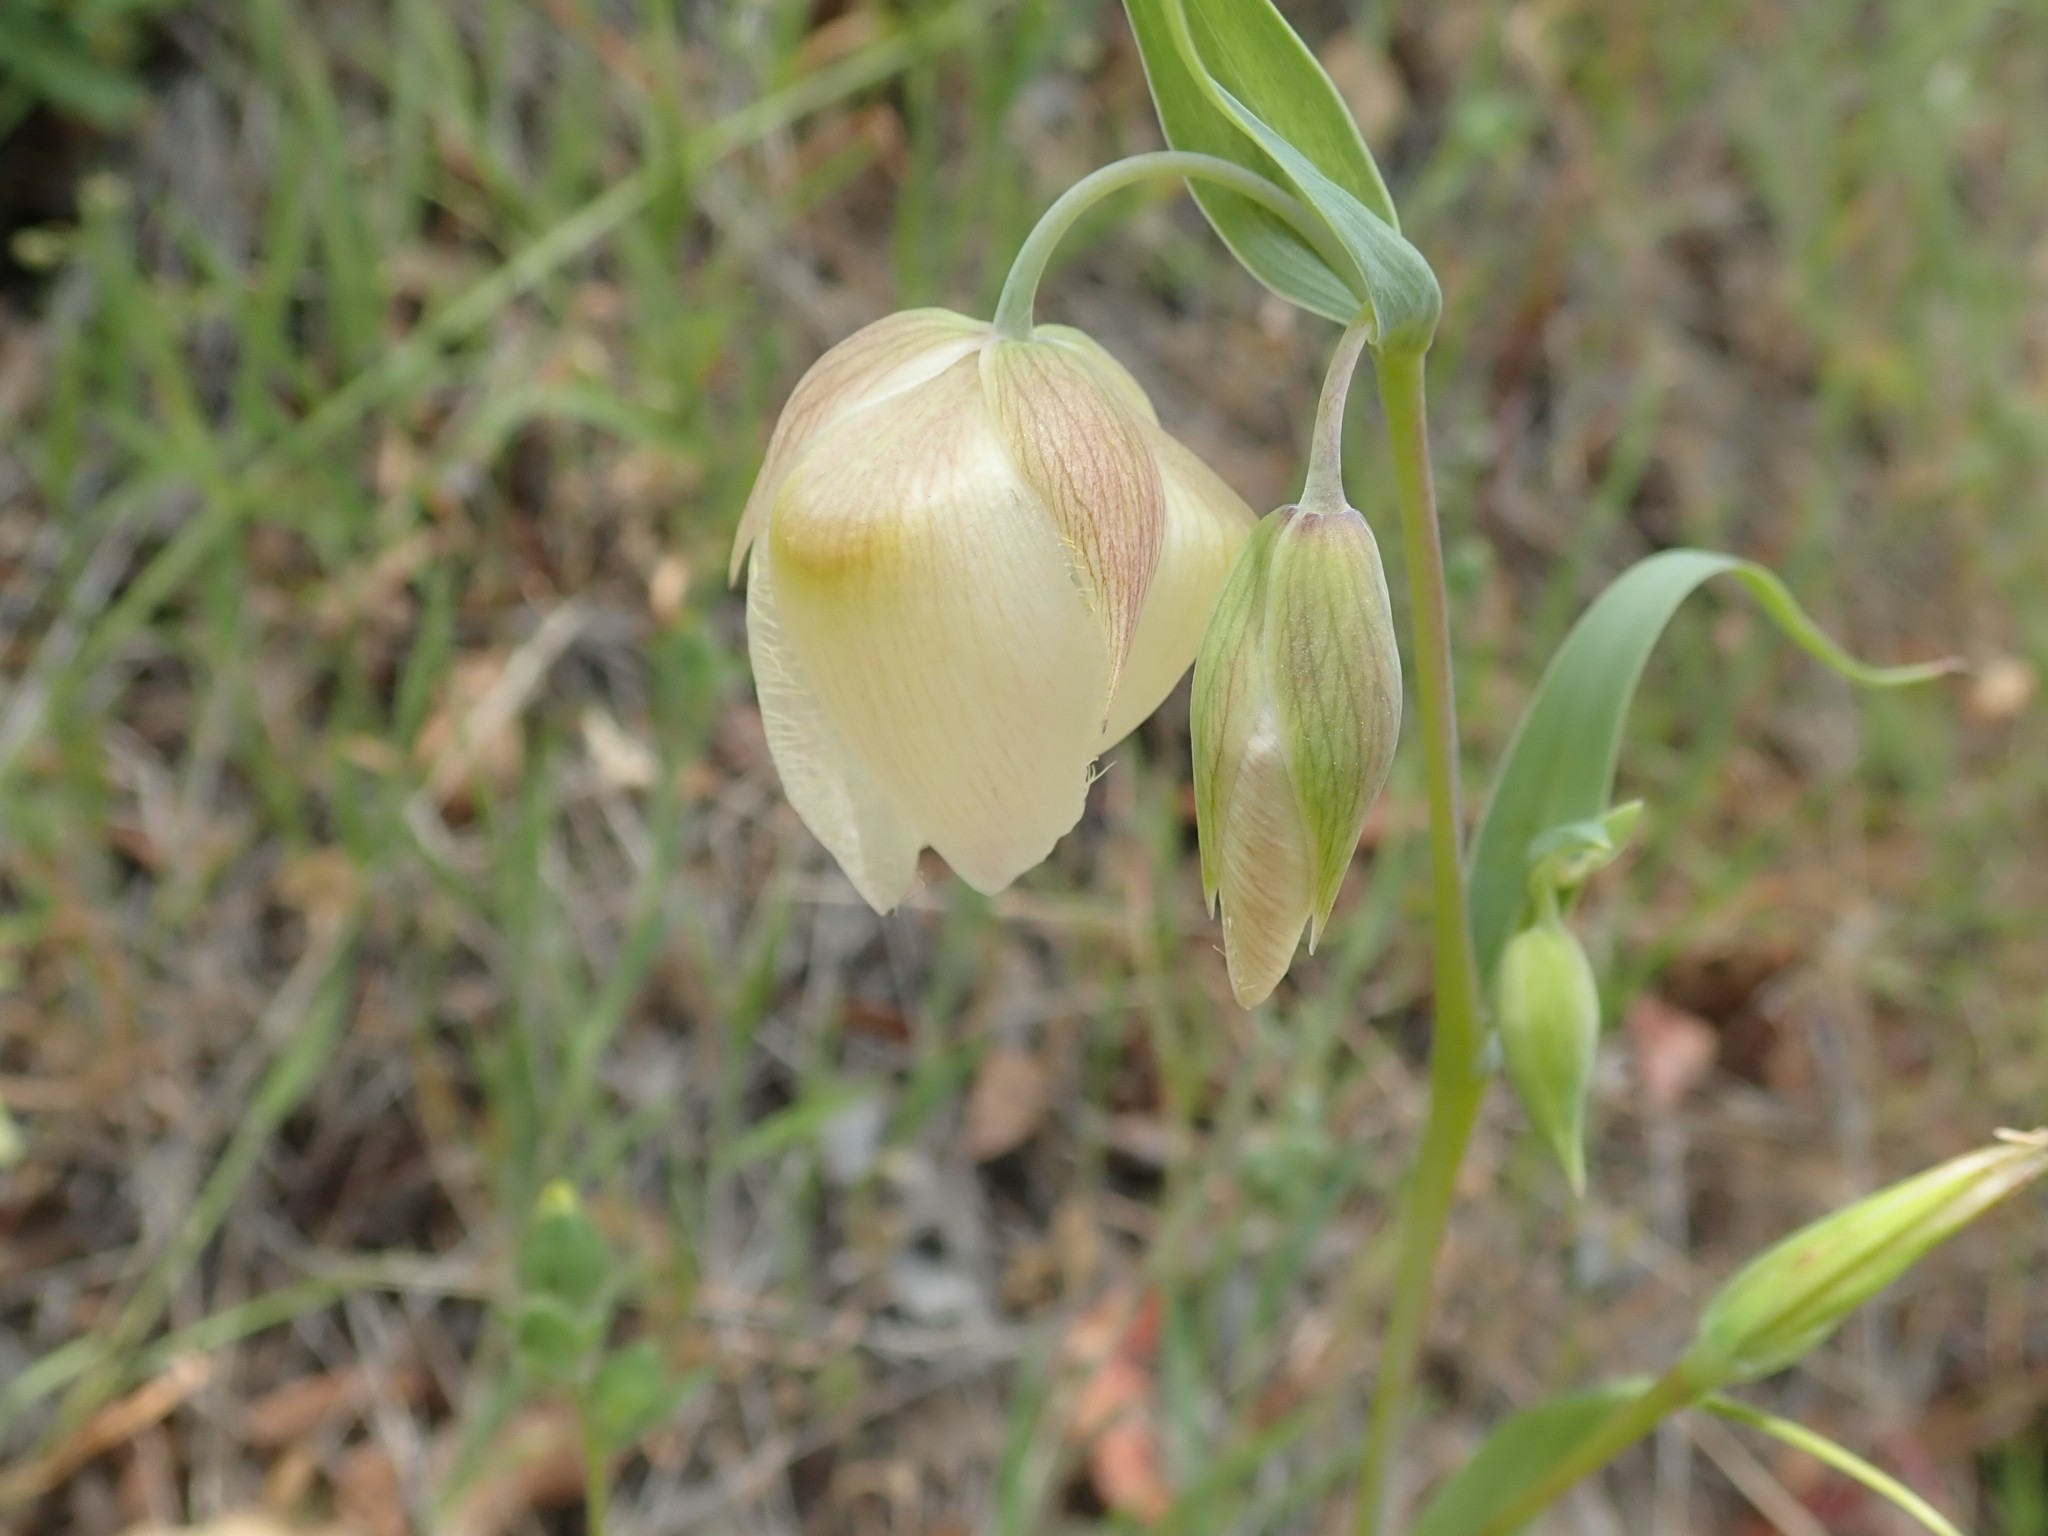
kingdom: Plantae
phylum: Tracheophyta
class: Liliopsida
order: Liliales
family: Liliaceae
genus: Calochortus
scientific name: Calochortus albus
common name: Fairy-lantern
